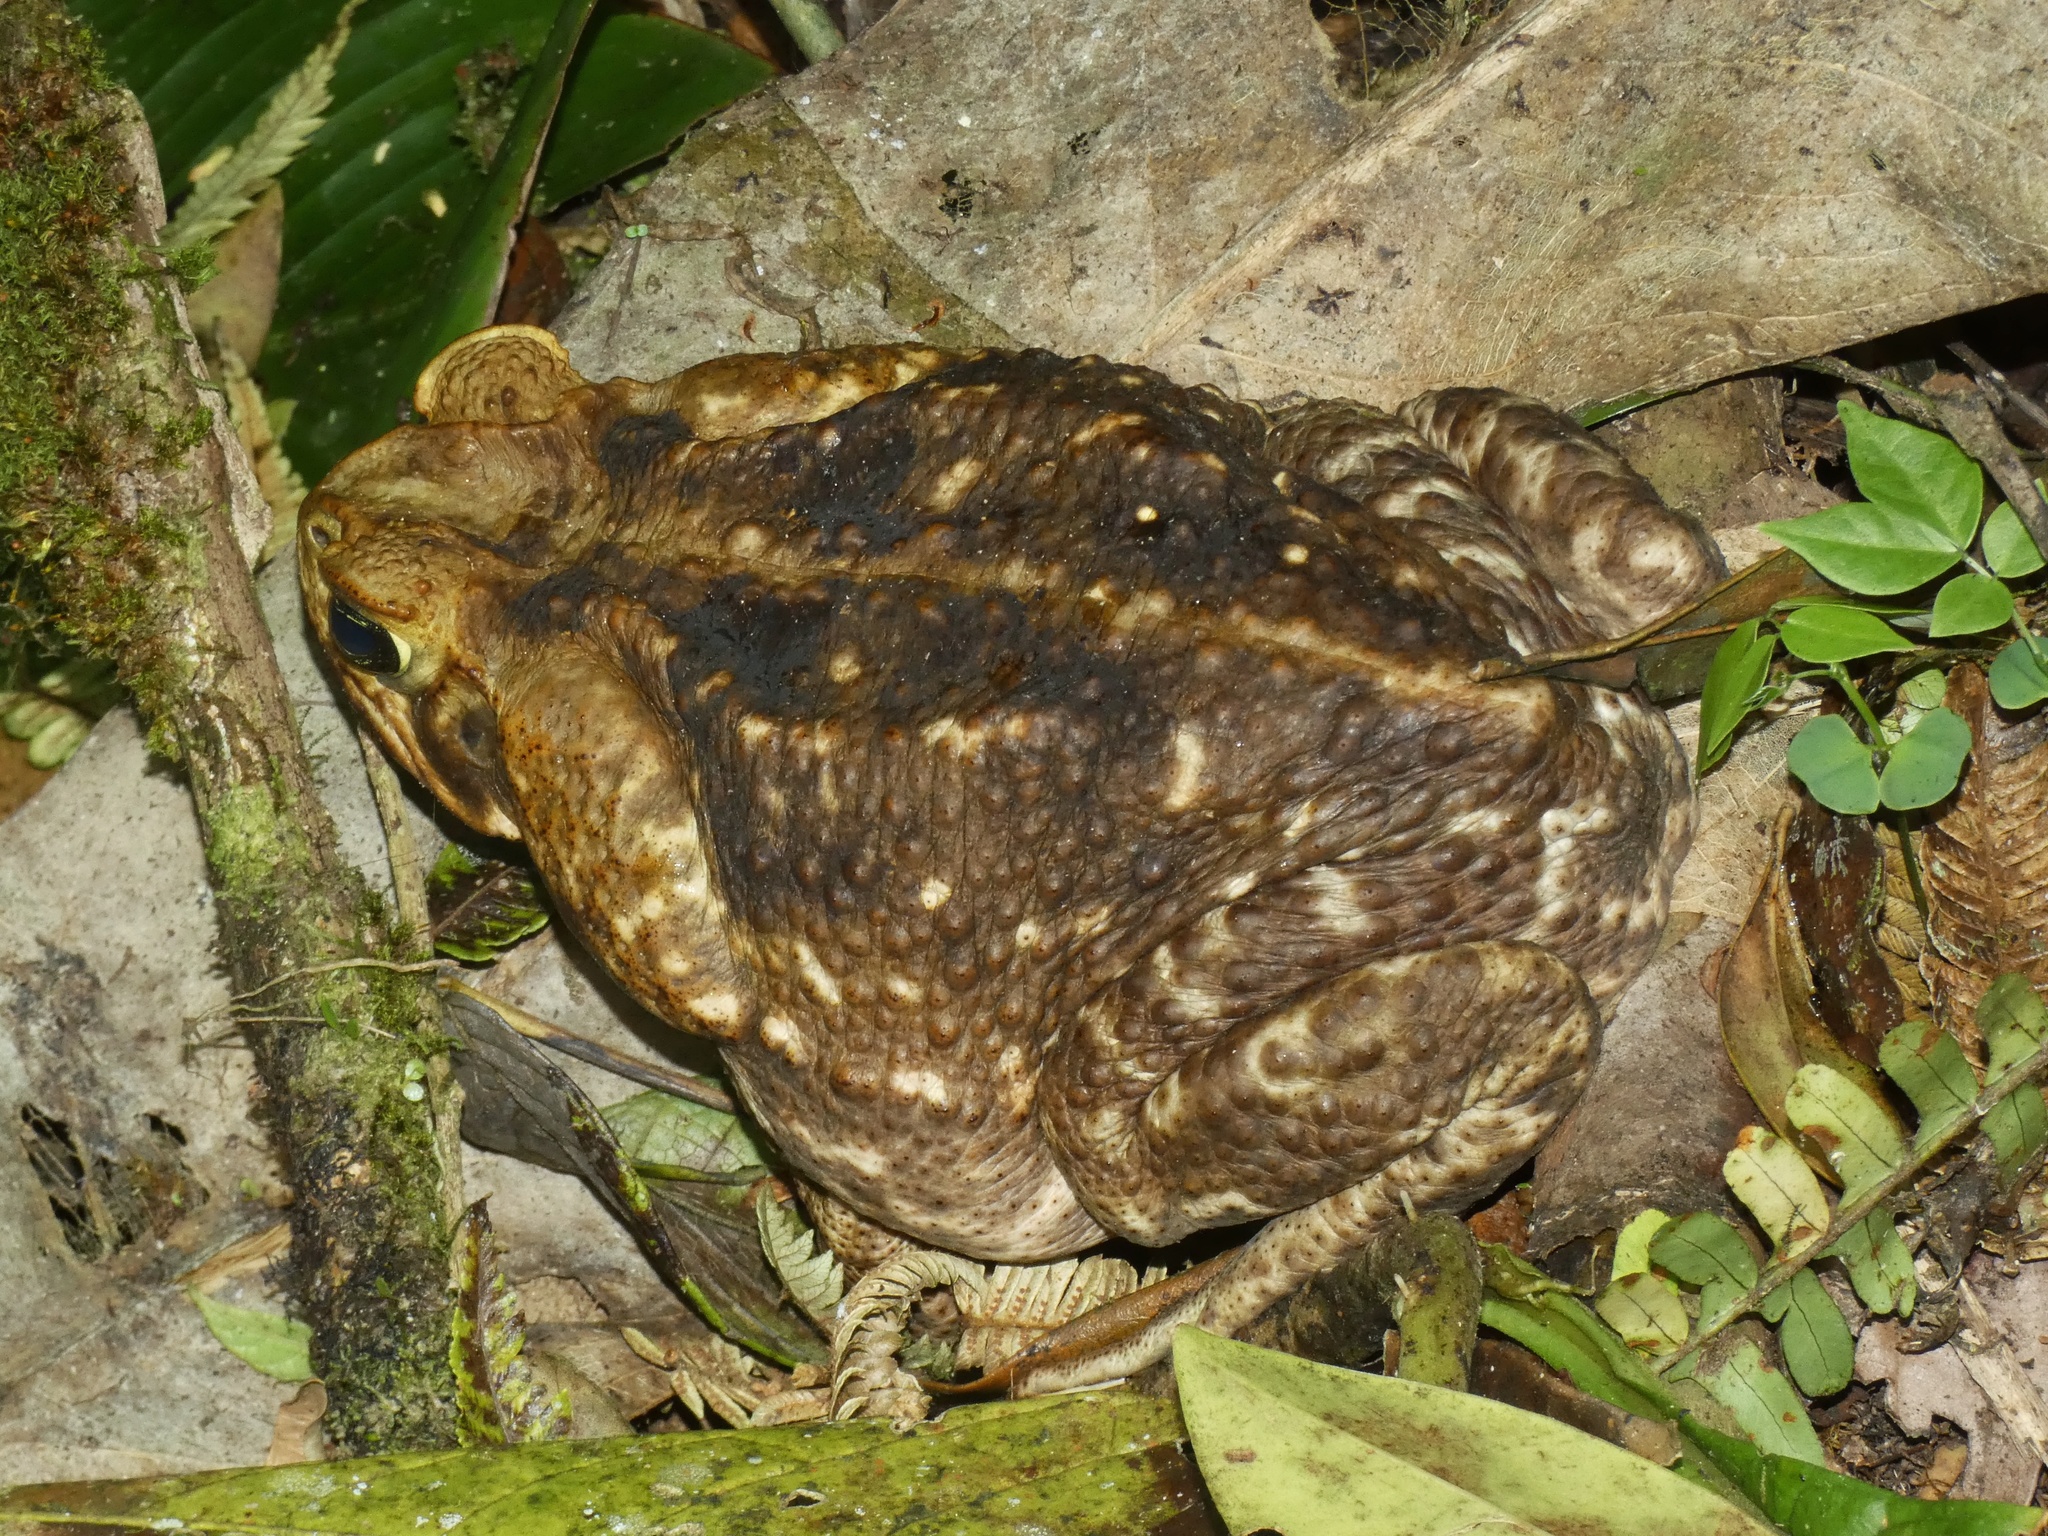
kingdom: Animalia
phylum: Chordata
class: Amphibia
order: Anura
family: Bufonidae
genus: Rhinella
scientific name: Rhinella horribilis
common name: Mesoamerican cane toad
